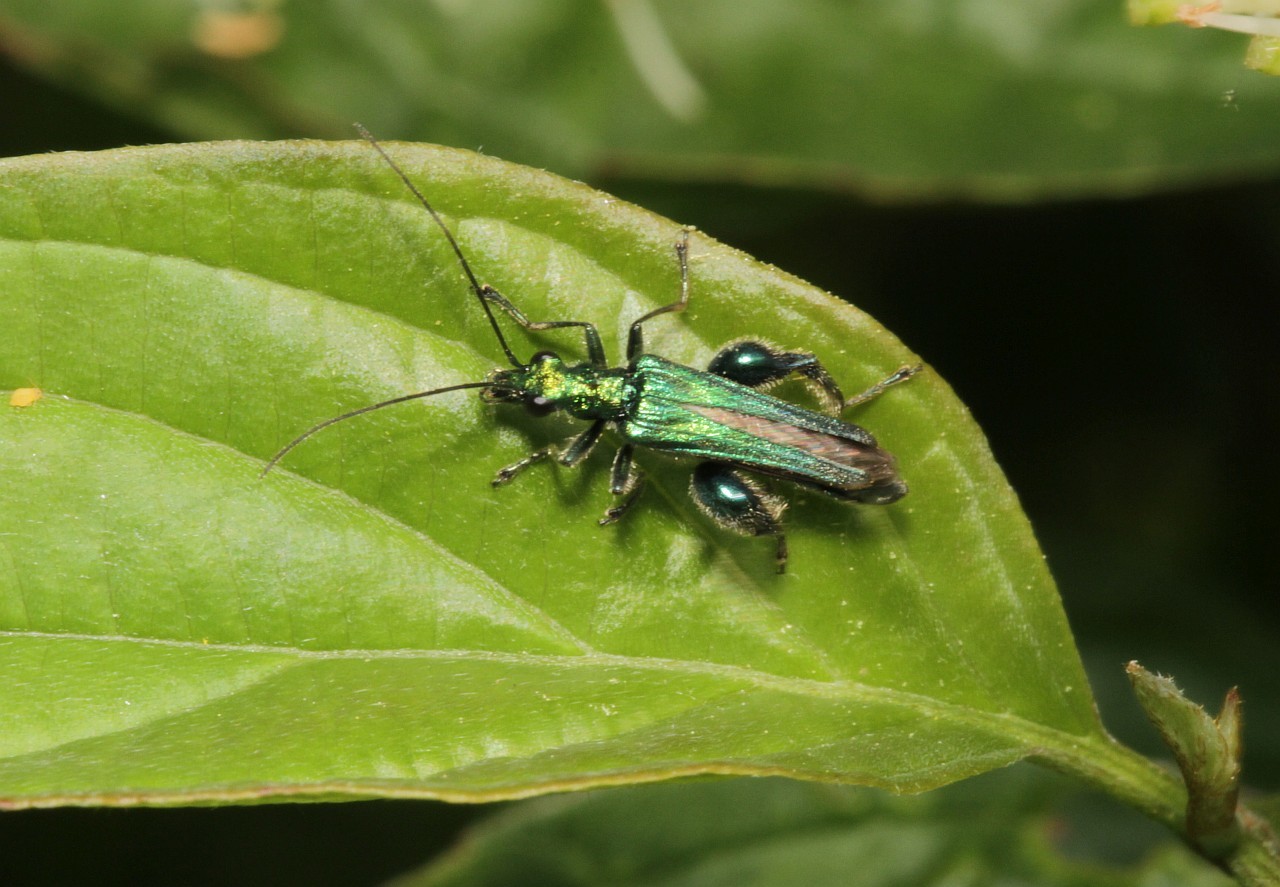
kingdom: Animalia
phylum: Arthropoda
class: Insecta
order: Coleoptera
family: Oedemeridae
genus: Oedemera
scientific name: Oedemera nobilis
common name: Swollen-thighed beetle
